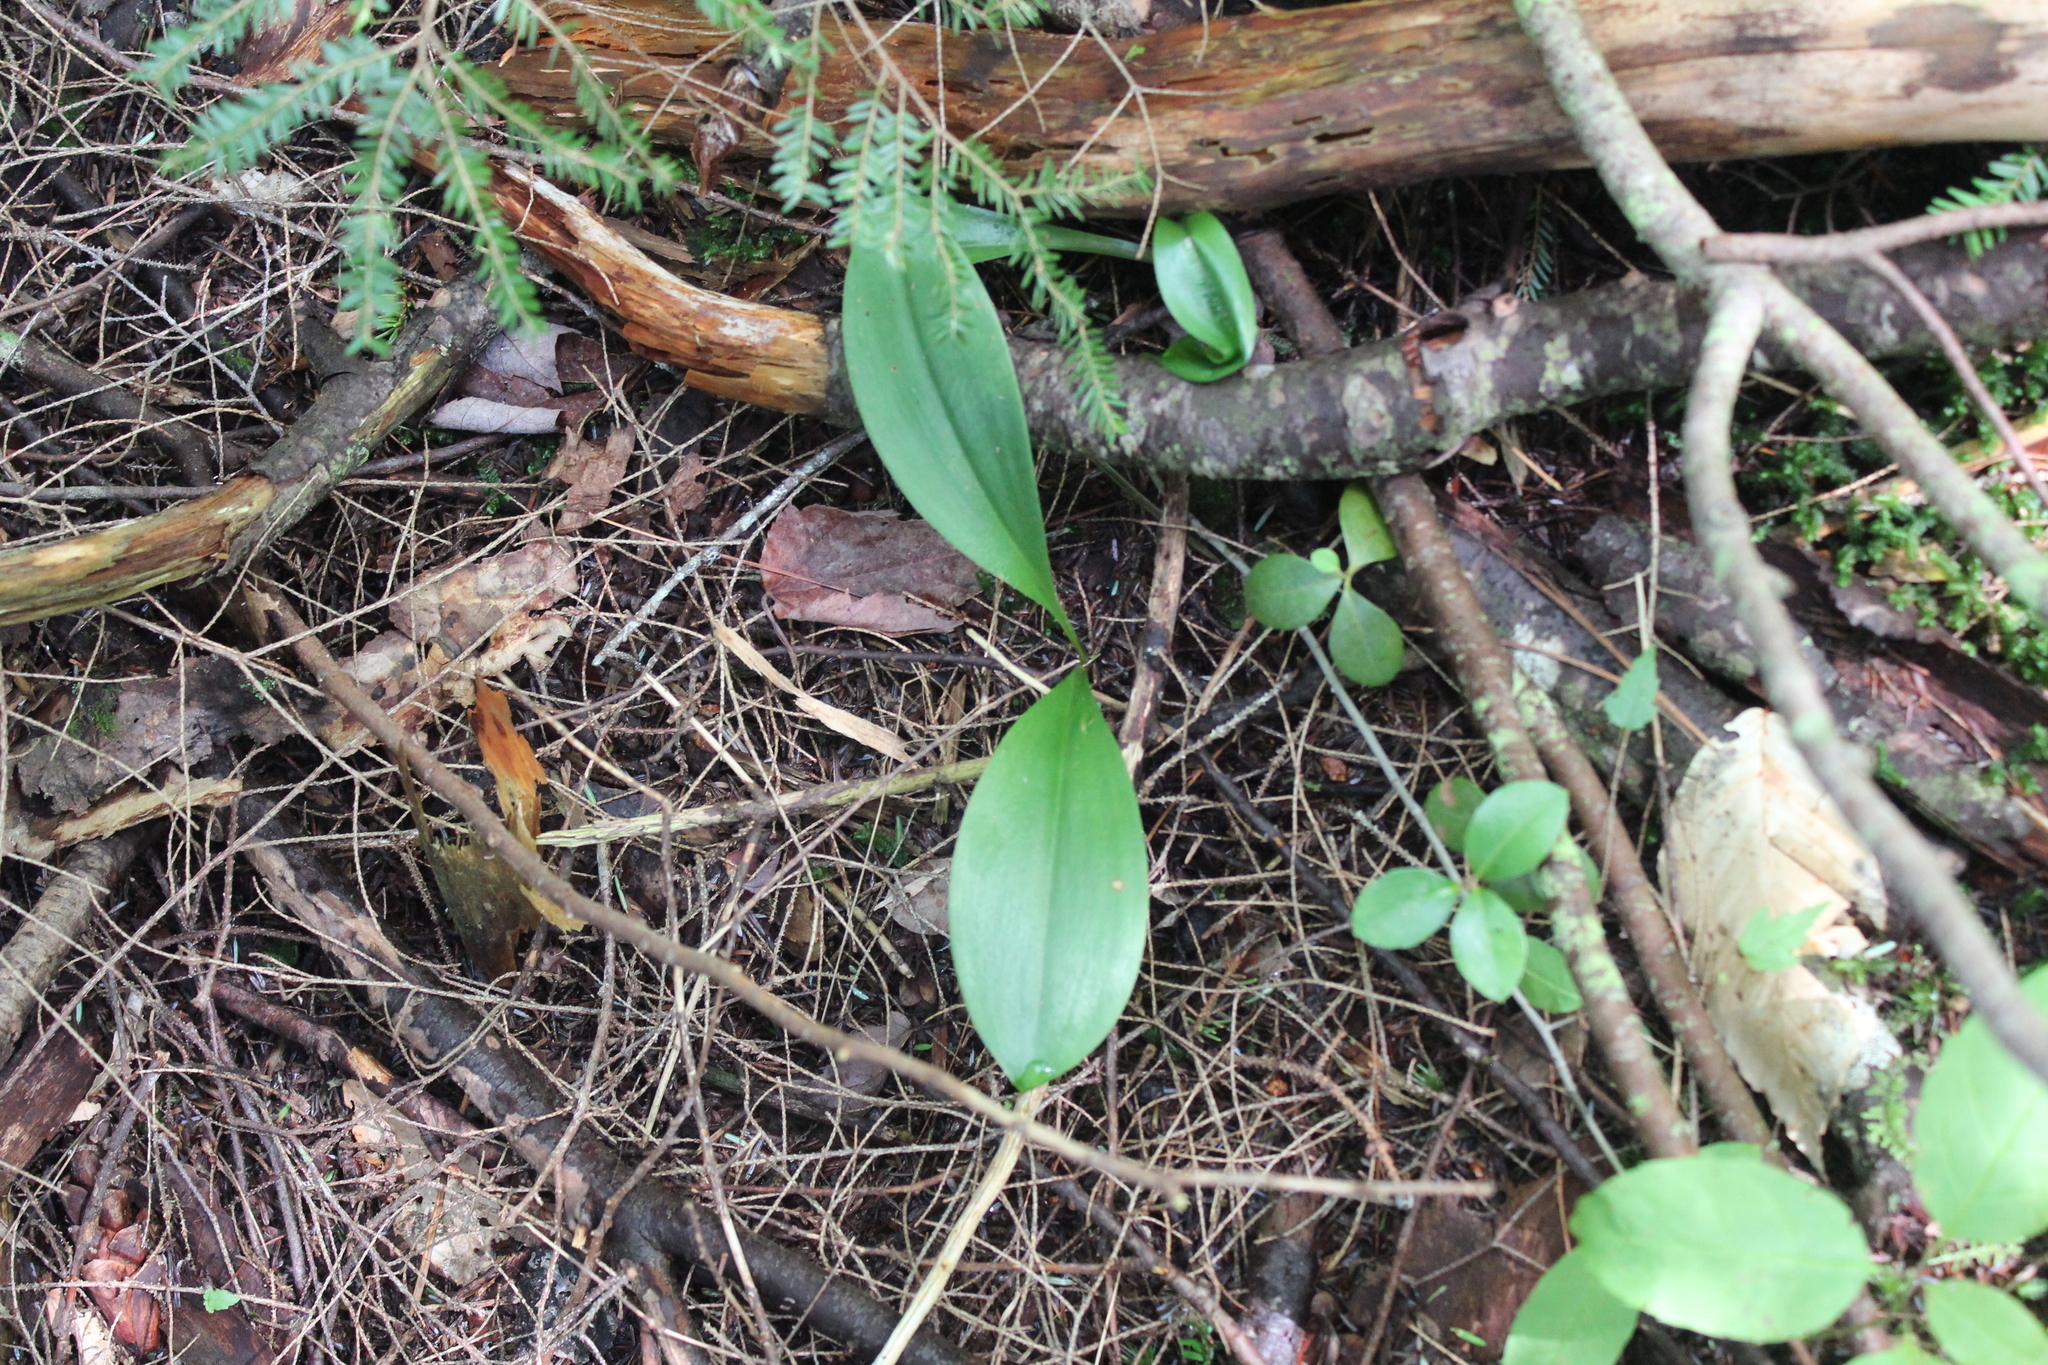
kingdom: Plantae
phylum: Tracheophyta
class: Liliopsida
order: Liliales
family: Liliaceae
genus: Clintonia
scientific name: Clintonia borealis
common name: Yellow clintonia
